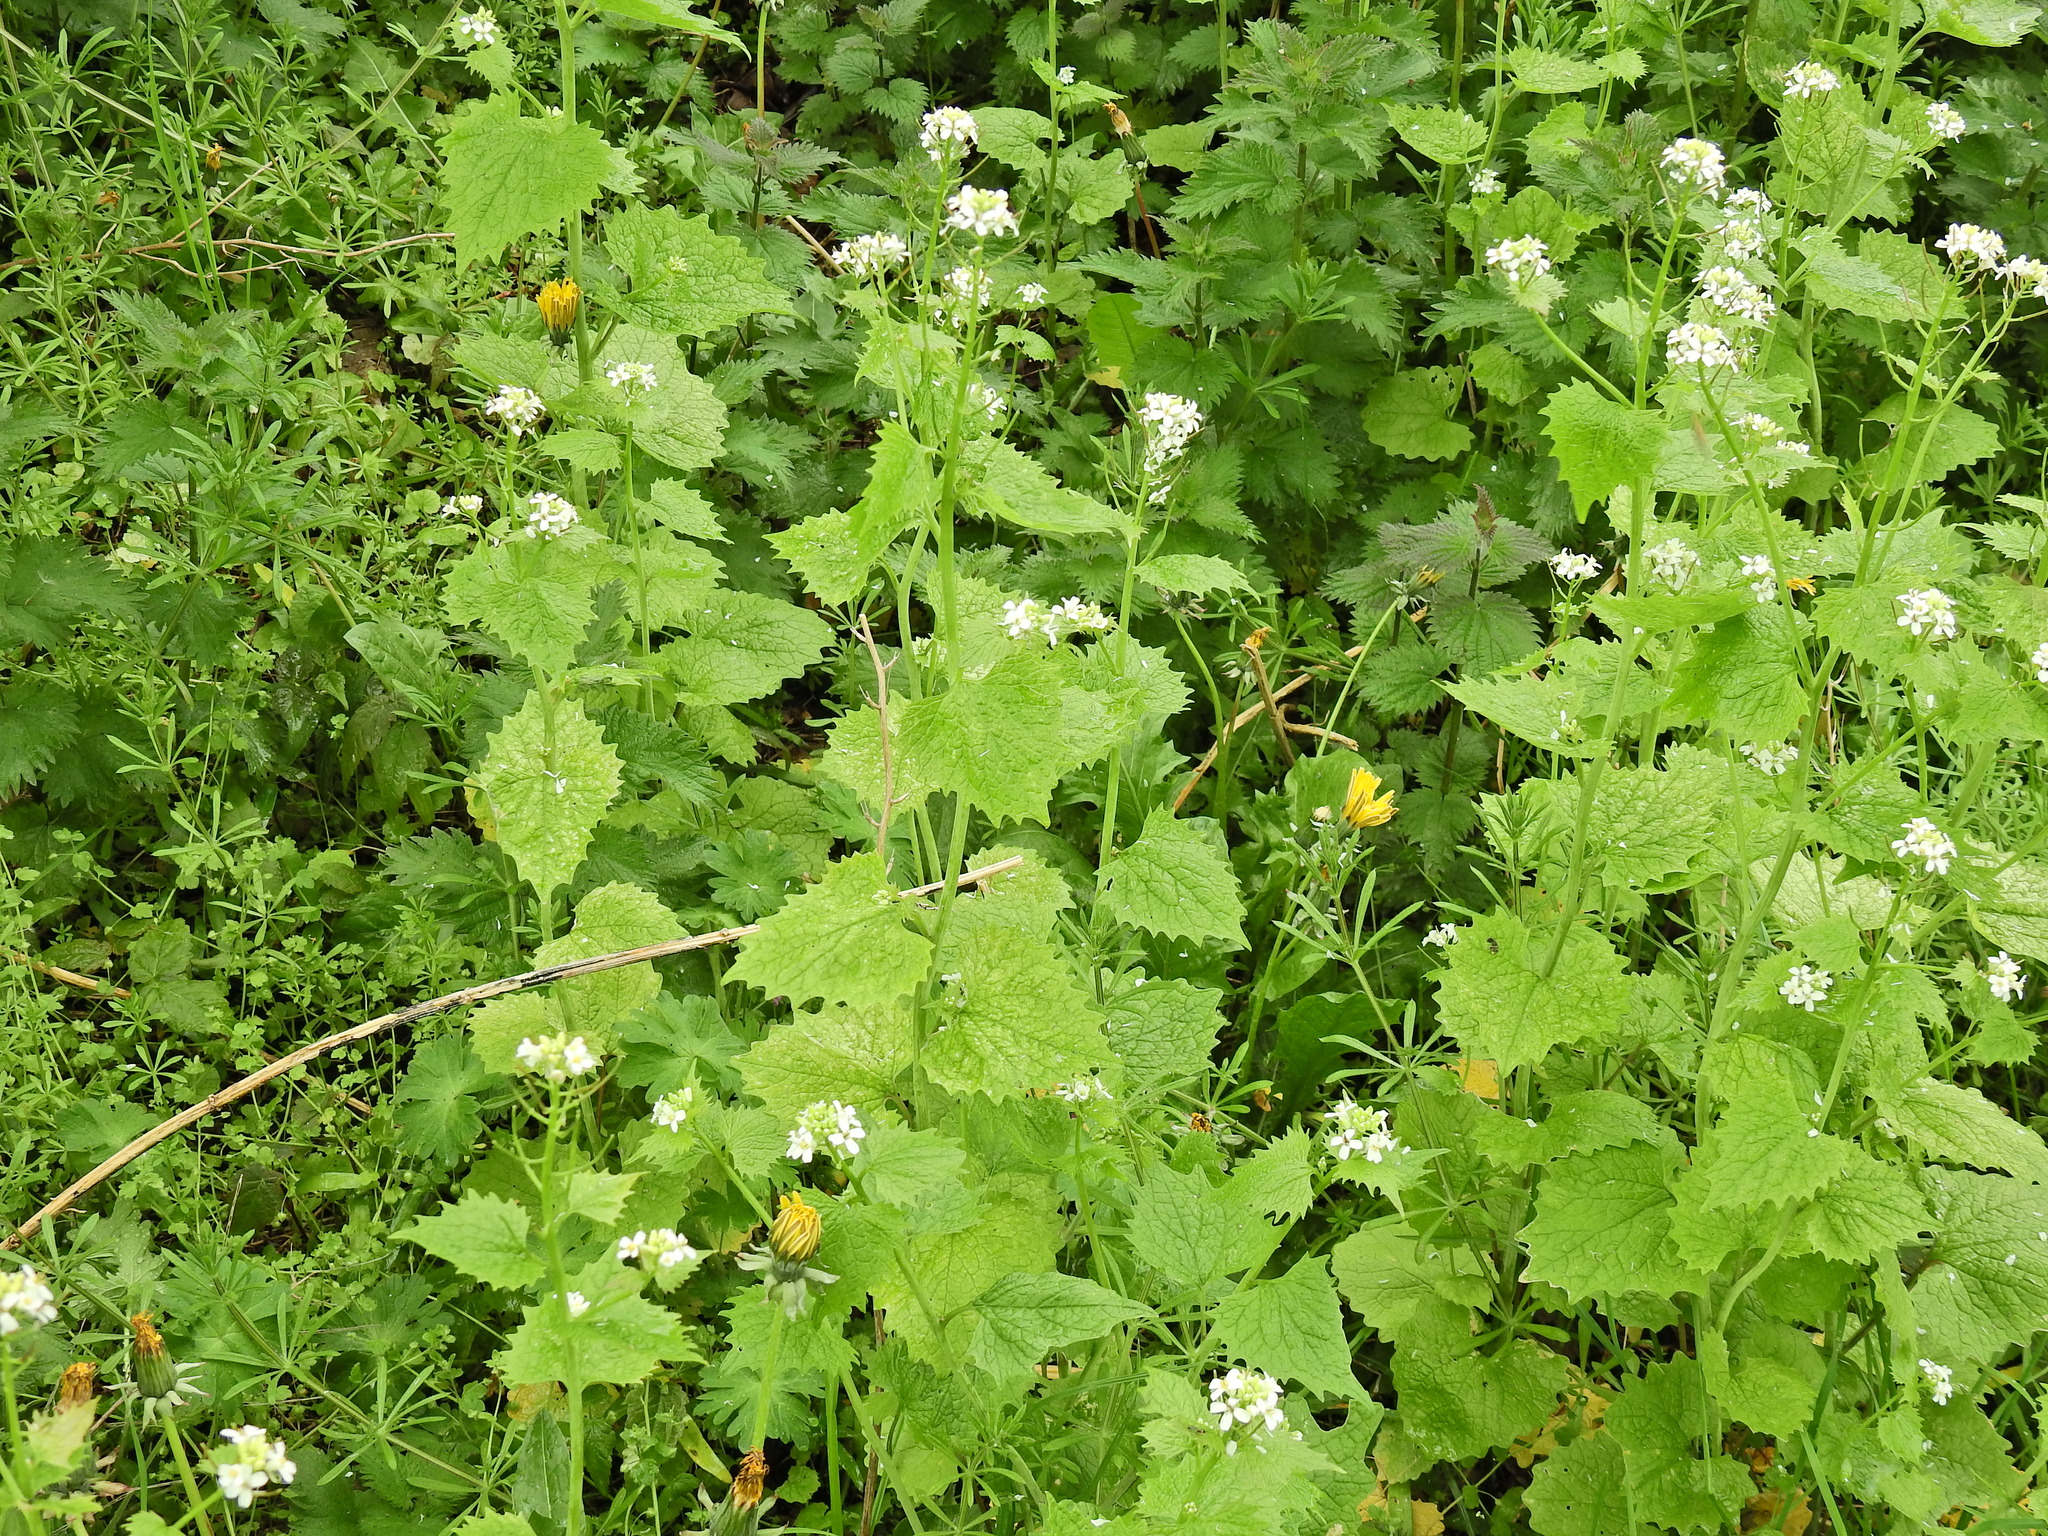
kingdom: Plantae
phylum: Tracheophyta
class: Magnoliopsida
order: Brassicales
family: Brassicaceae
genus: Alliaria
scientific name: Alliaria petiolata
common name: Garlic mustard
